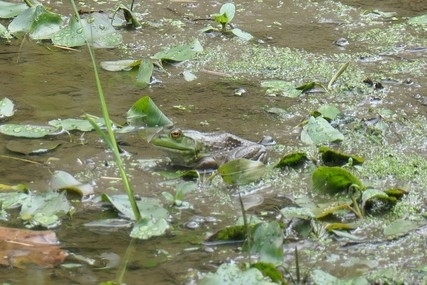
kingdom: Animalia
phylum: Chordata
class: Amphibia
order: Anura
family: Ranidae
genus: Lithobates
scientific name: Lithobates catesbeianus
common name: American bullfrog
